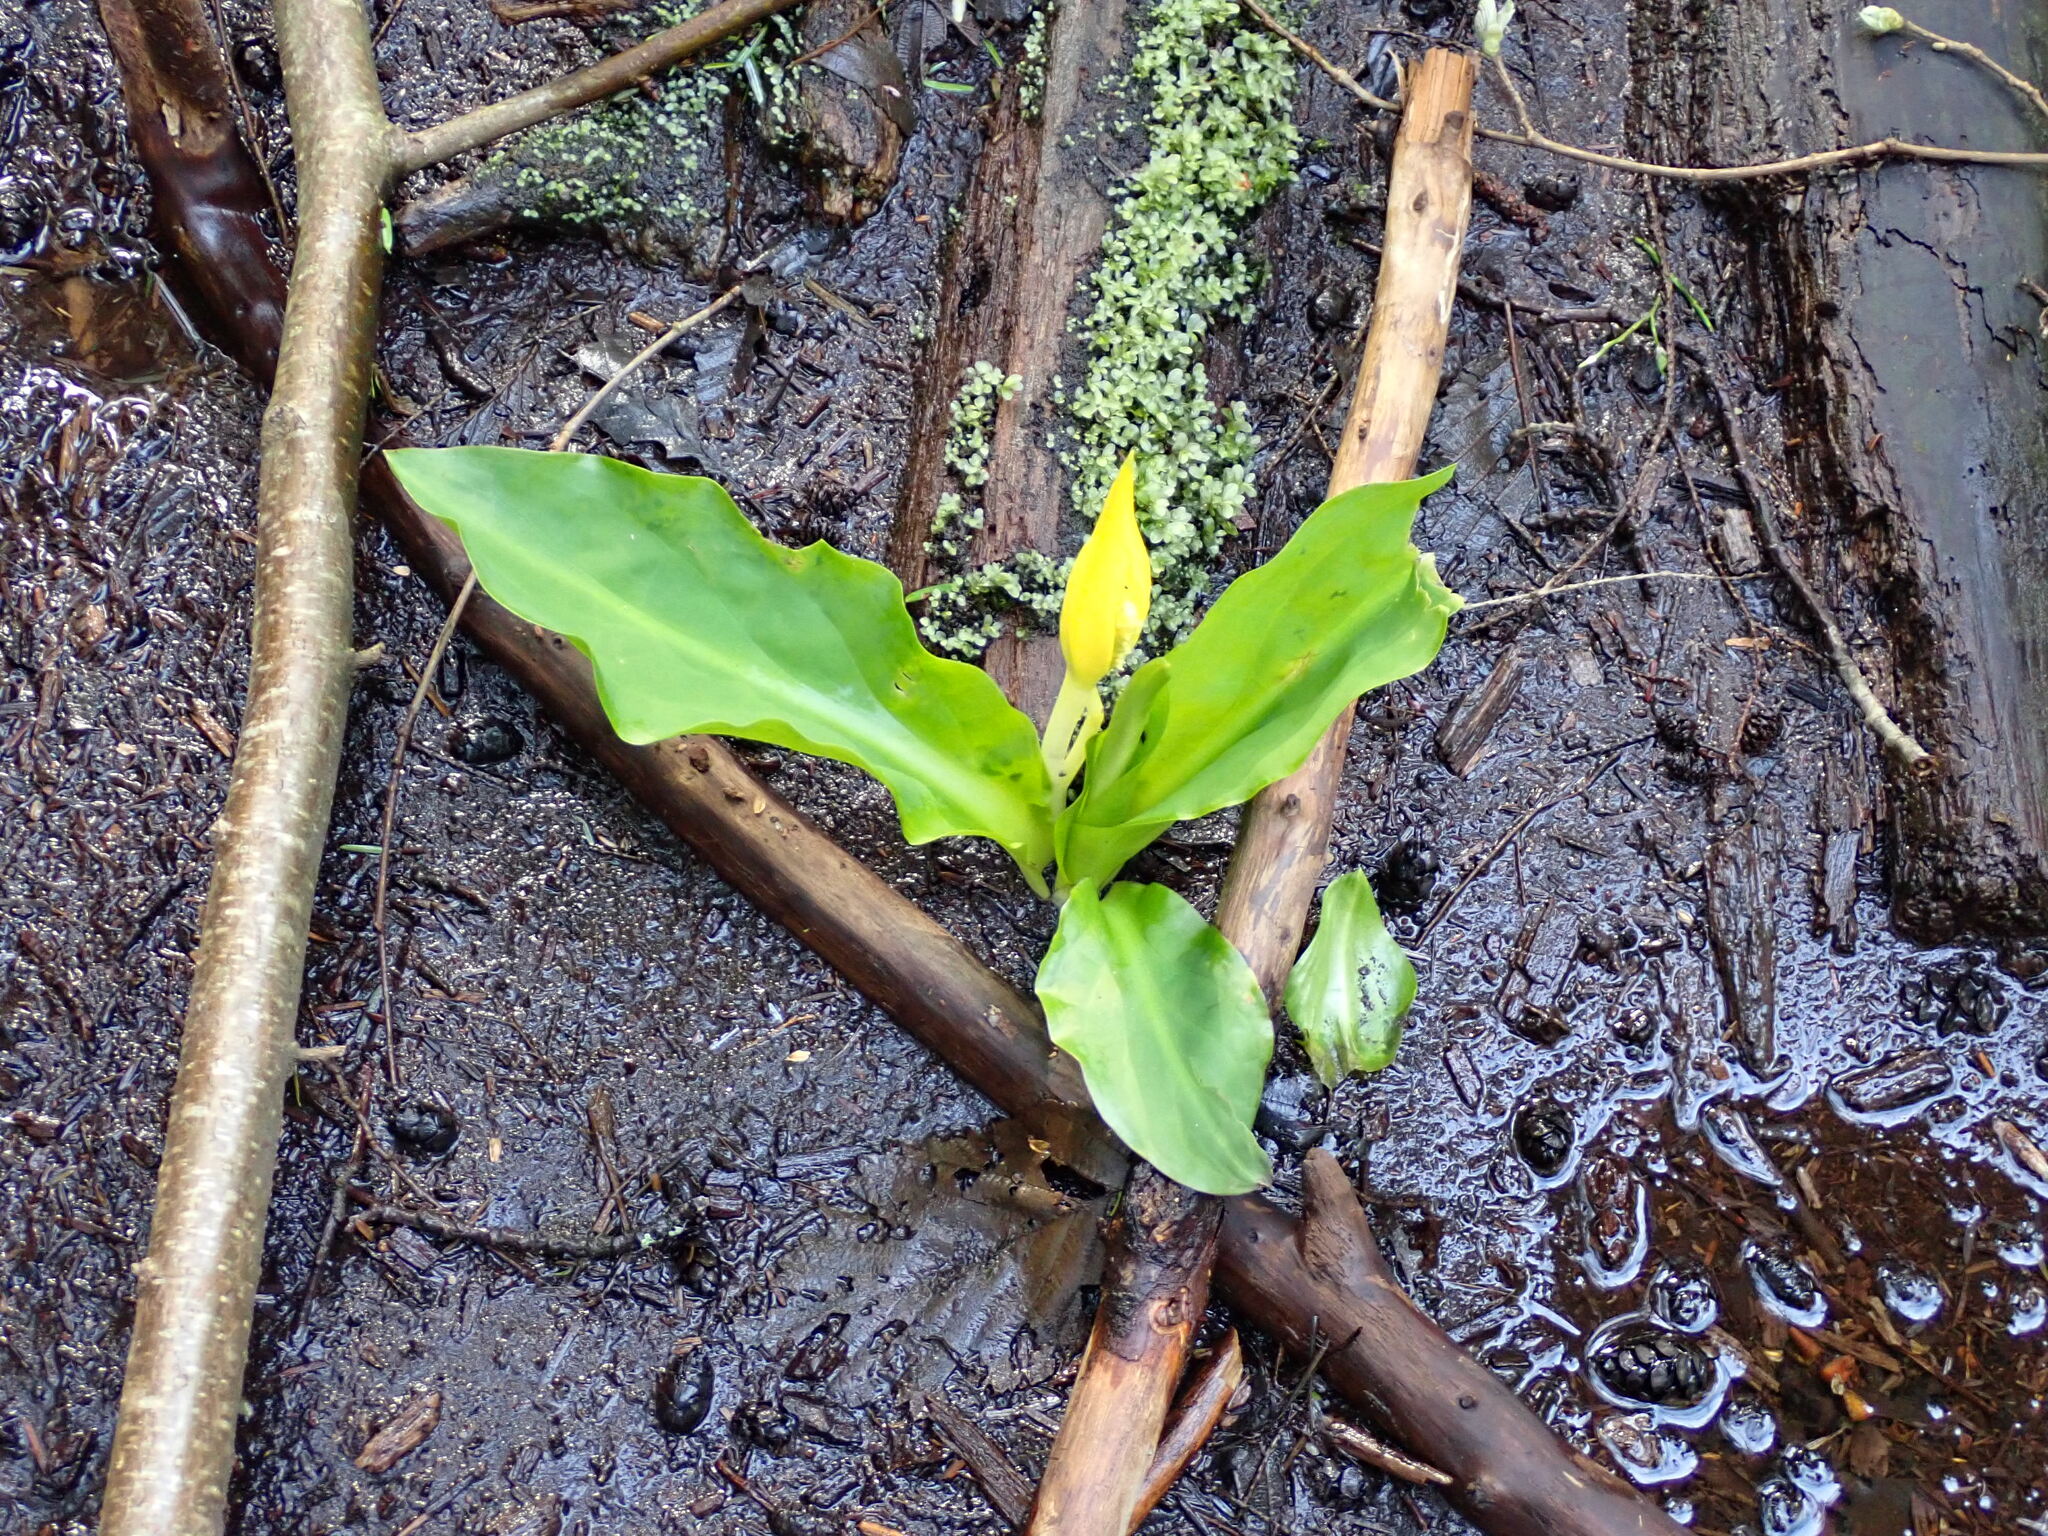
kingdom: Plantae
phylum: Tracheophyta
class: Liliopsida
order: Alismatales
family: Araceae
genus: Lysichiton
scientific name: Lysichiton americanus
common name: American skunk cabbage
